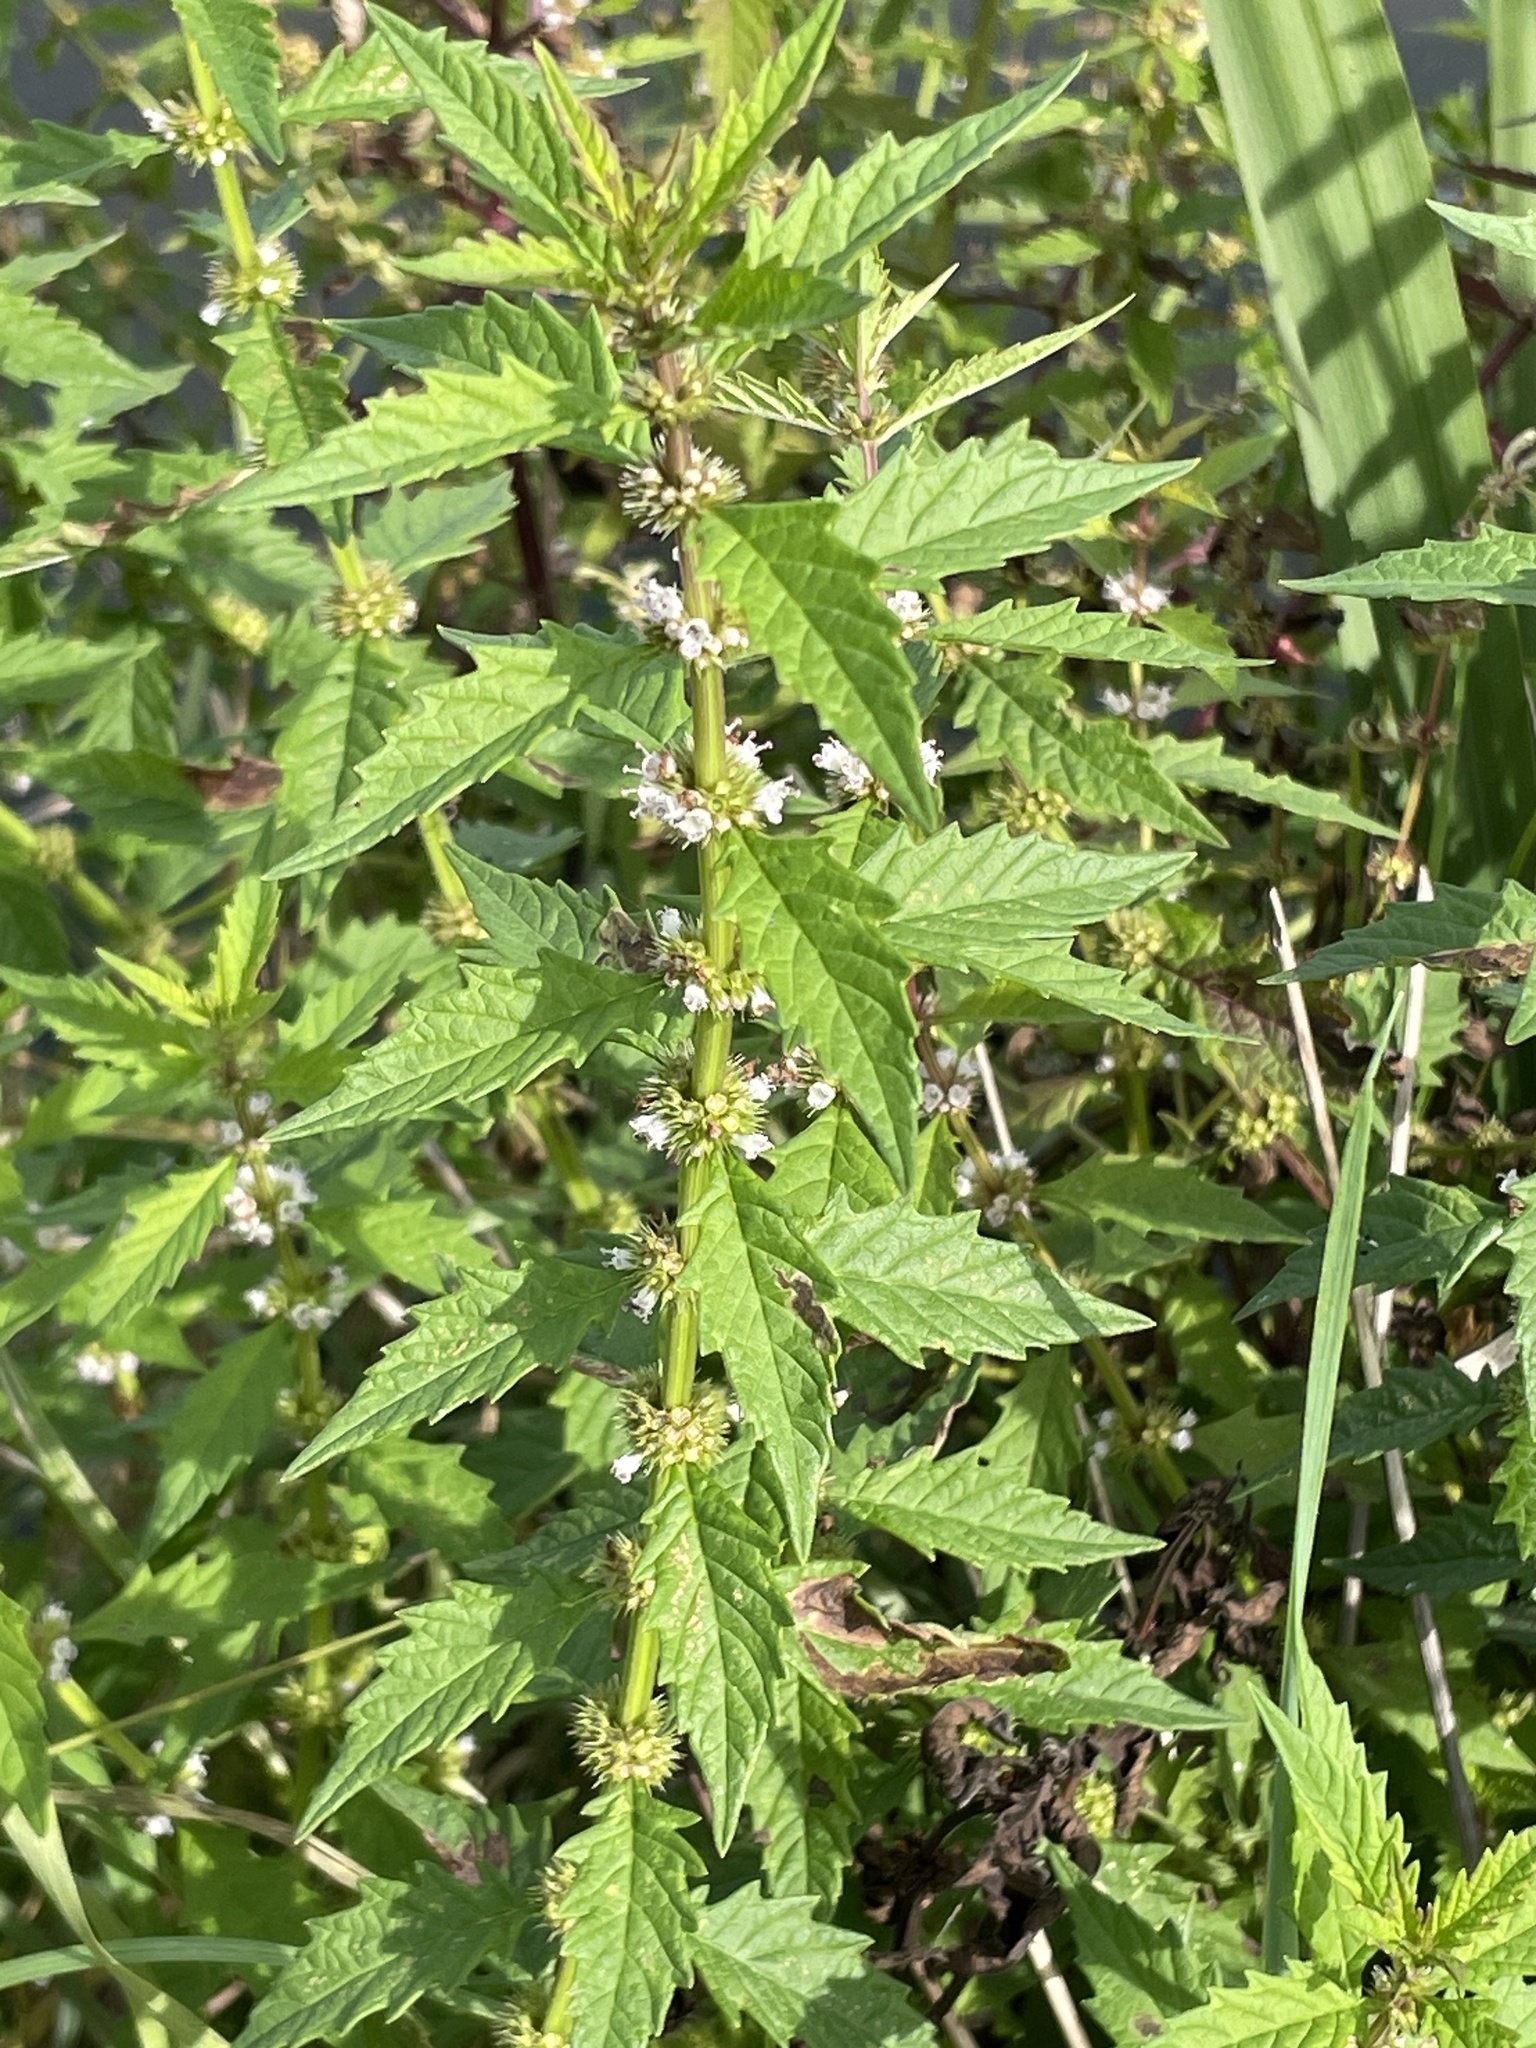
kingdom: Plantae
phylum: Tracheophyta
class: Magnoliopsida
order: Lamiales
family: Lamiaceae
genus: Lycopus
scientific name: Lycopus europaeus
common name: European bugleweed
